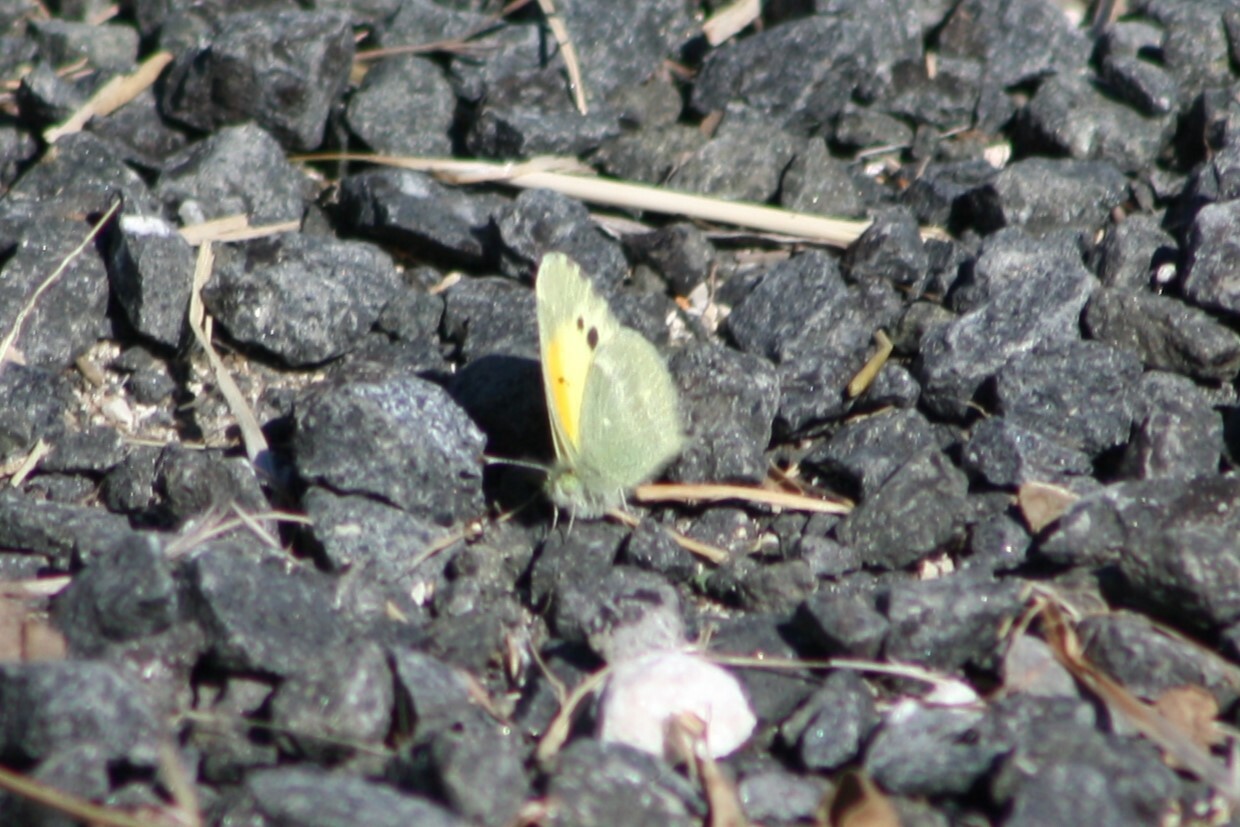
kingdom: Animalia
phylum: Arthropoda
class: Insecta
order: Lepidoptera
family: Pieridae
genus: Nathalis
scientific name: Nathalis iole
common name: Dainty sulphur
